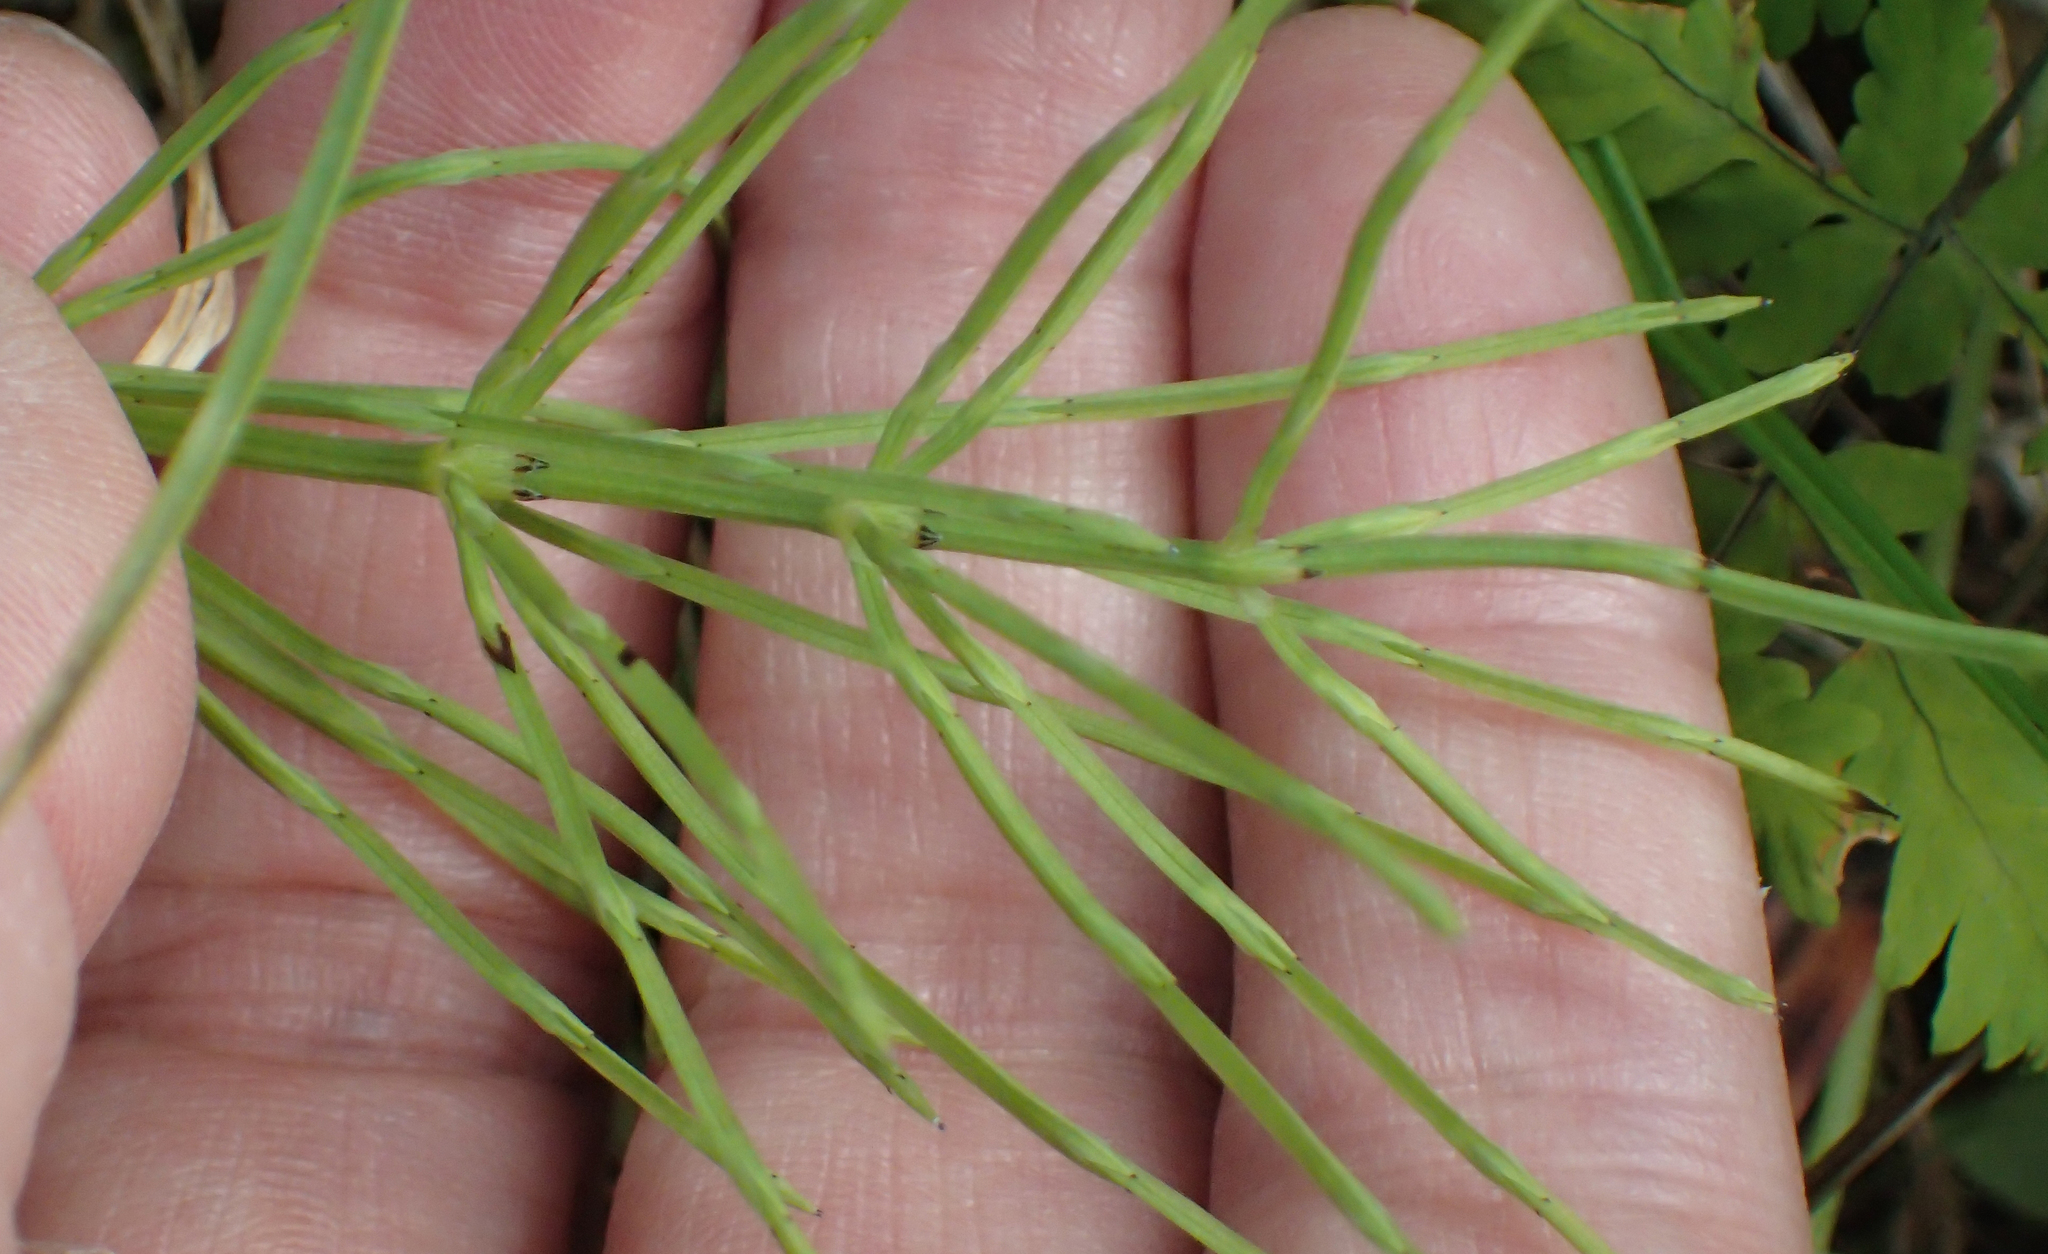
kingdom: Plantae
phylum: Tracheophyta
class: Polypodiopsida
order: Equisetales
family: Equisetaceae
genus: Equisetum
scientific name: Equisetum arvense
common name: Field horsetail
